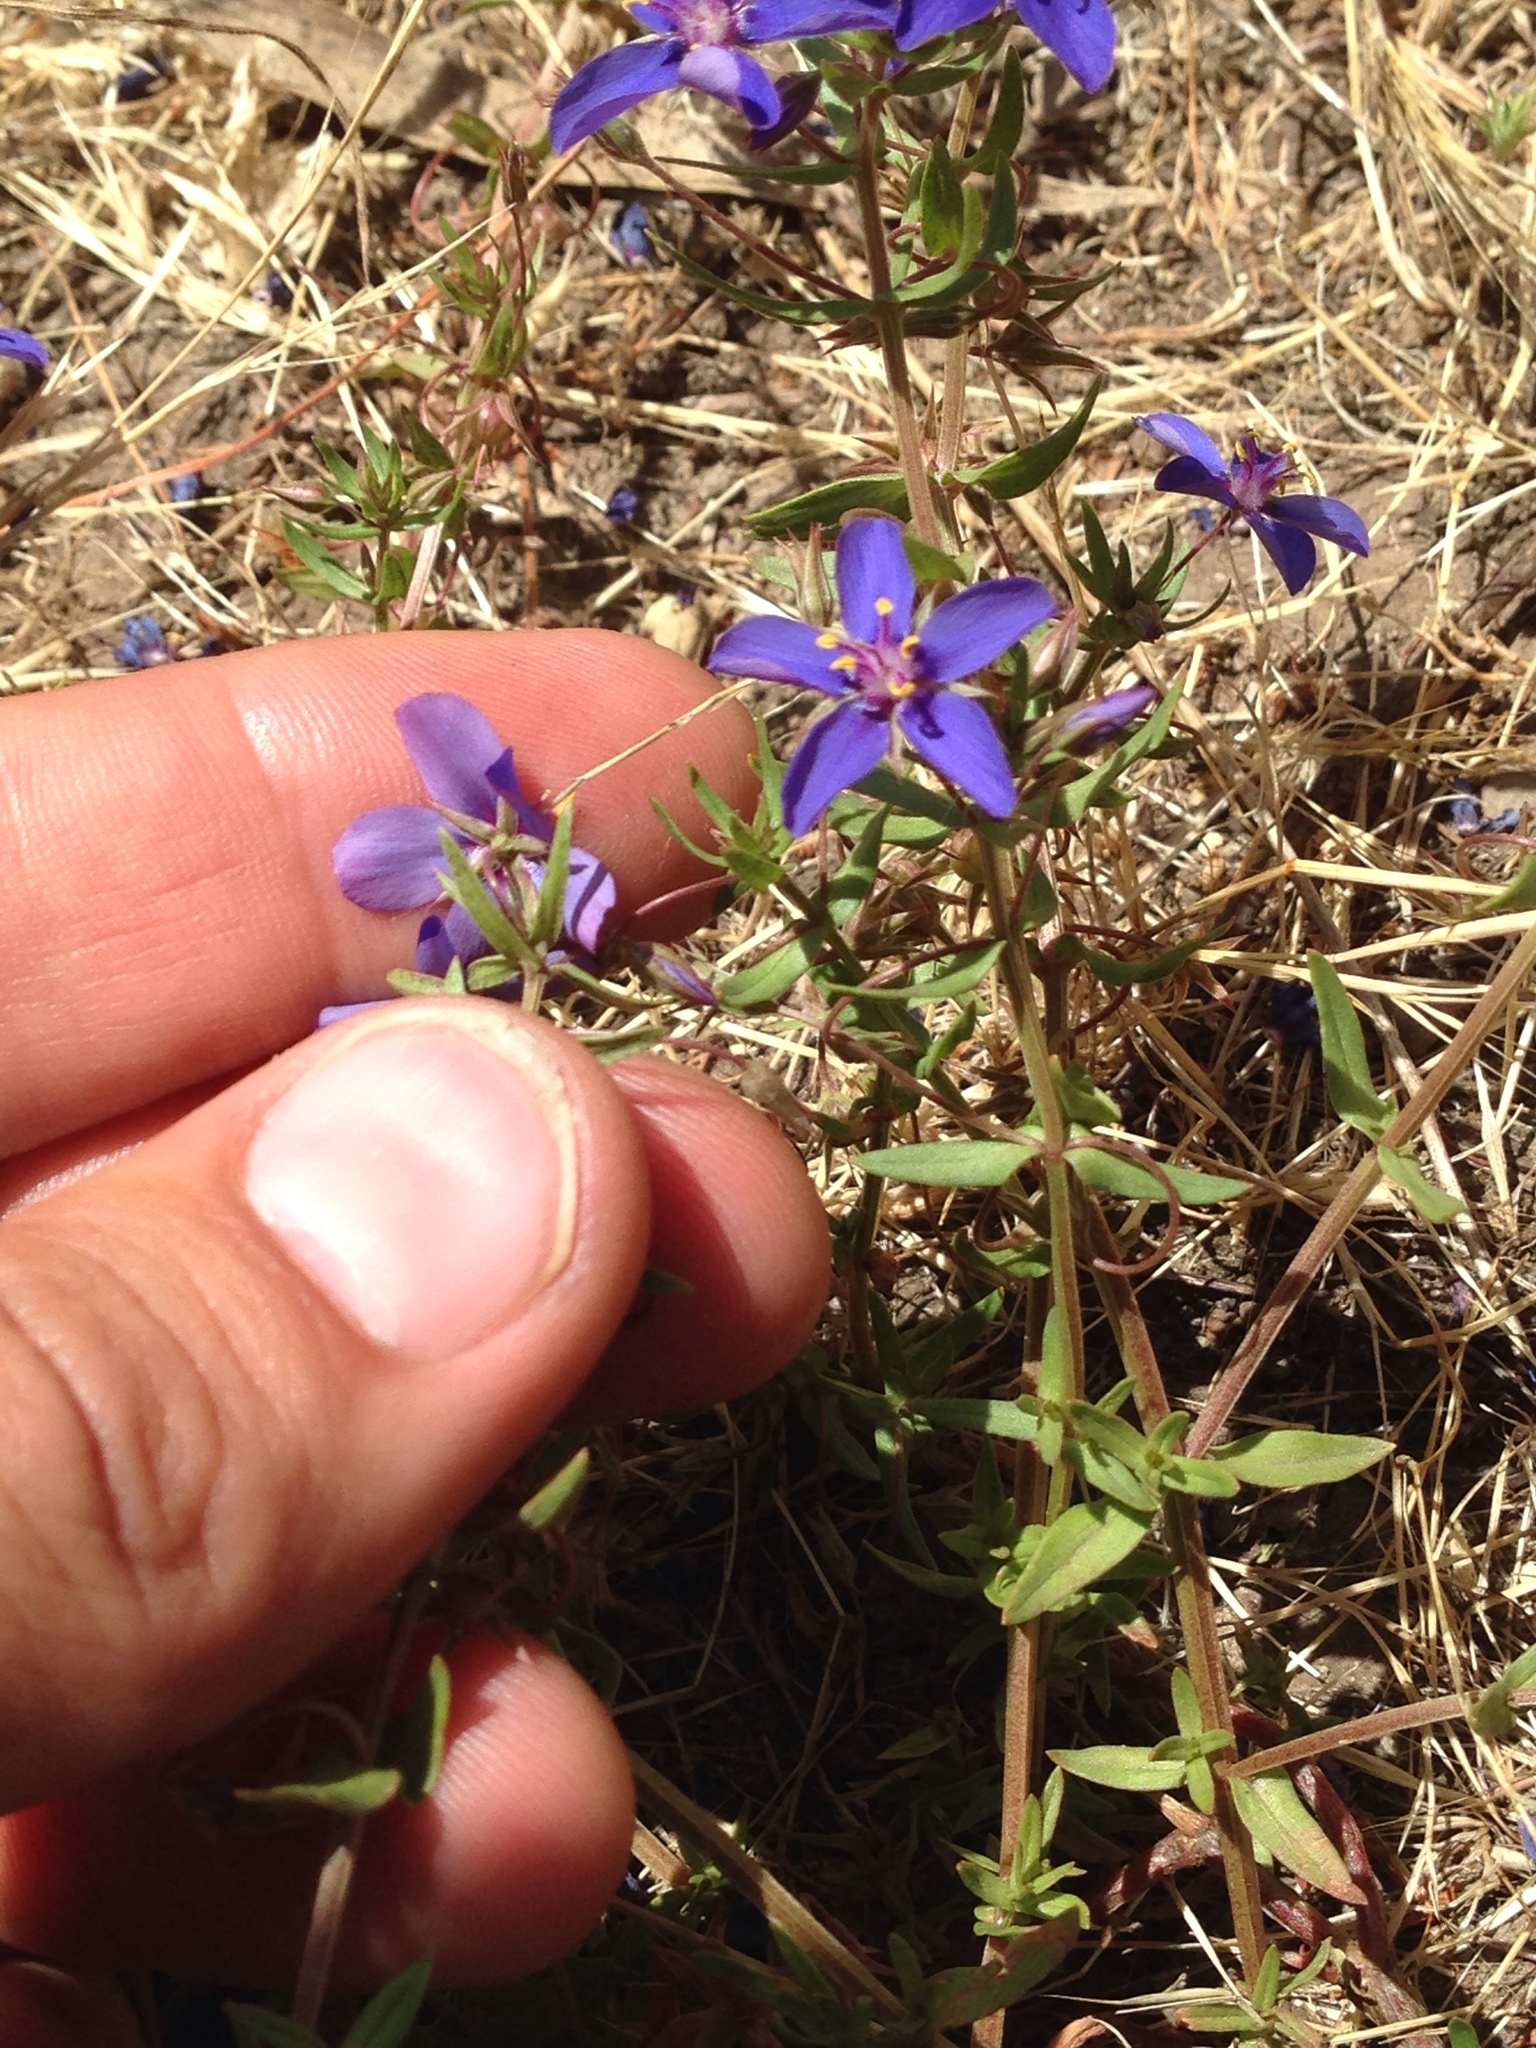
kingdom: Plantae
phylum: Tracheophyta
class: Magnoliopsida
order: Ericales
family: Primulaceae
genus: Lysimachia
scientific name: Lysimachia monelli
